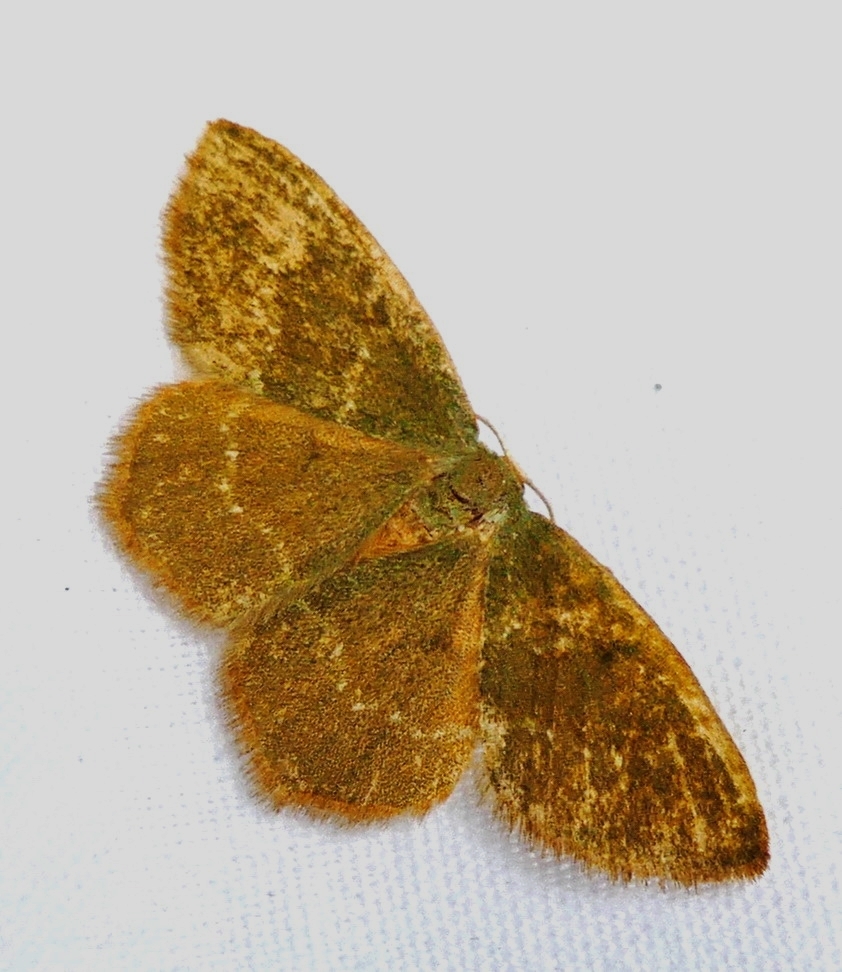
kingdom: Animalia
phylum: Arthropoda
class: Insecta
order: Lepidoptera
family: Geometridae
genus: Thalera
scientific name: Thalera pistasciaria
